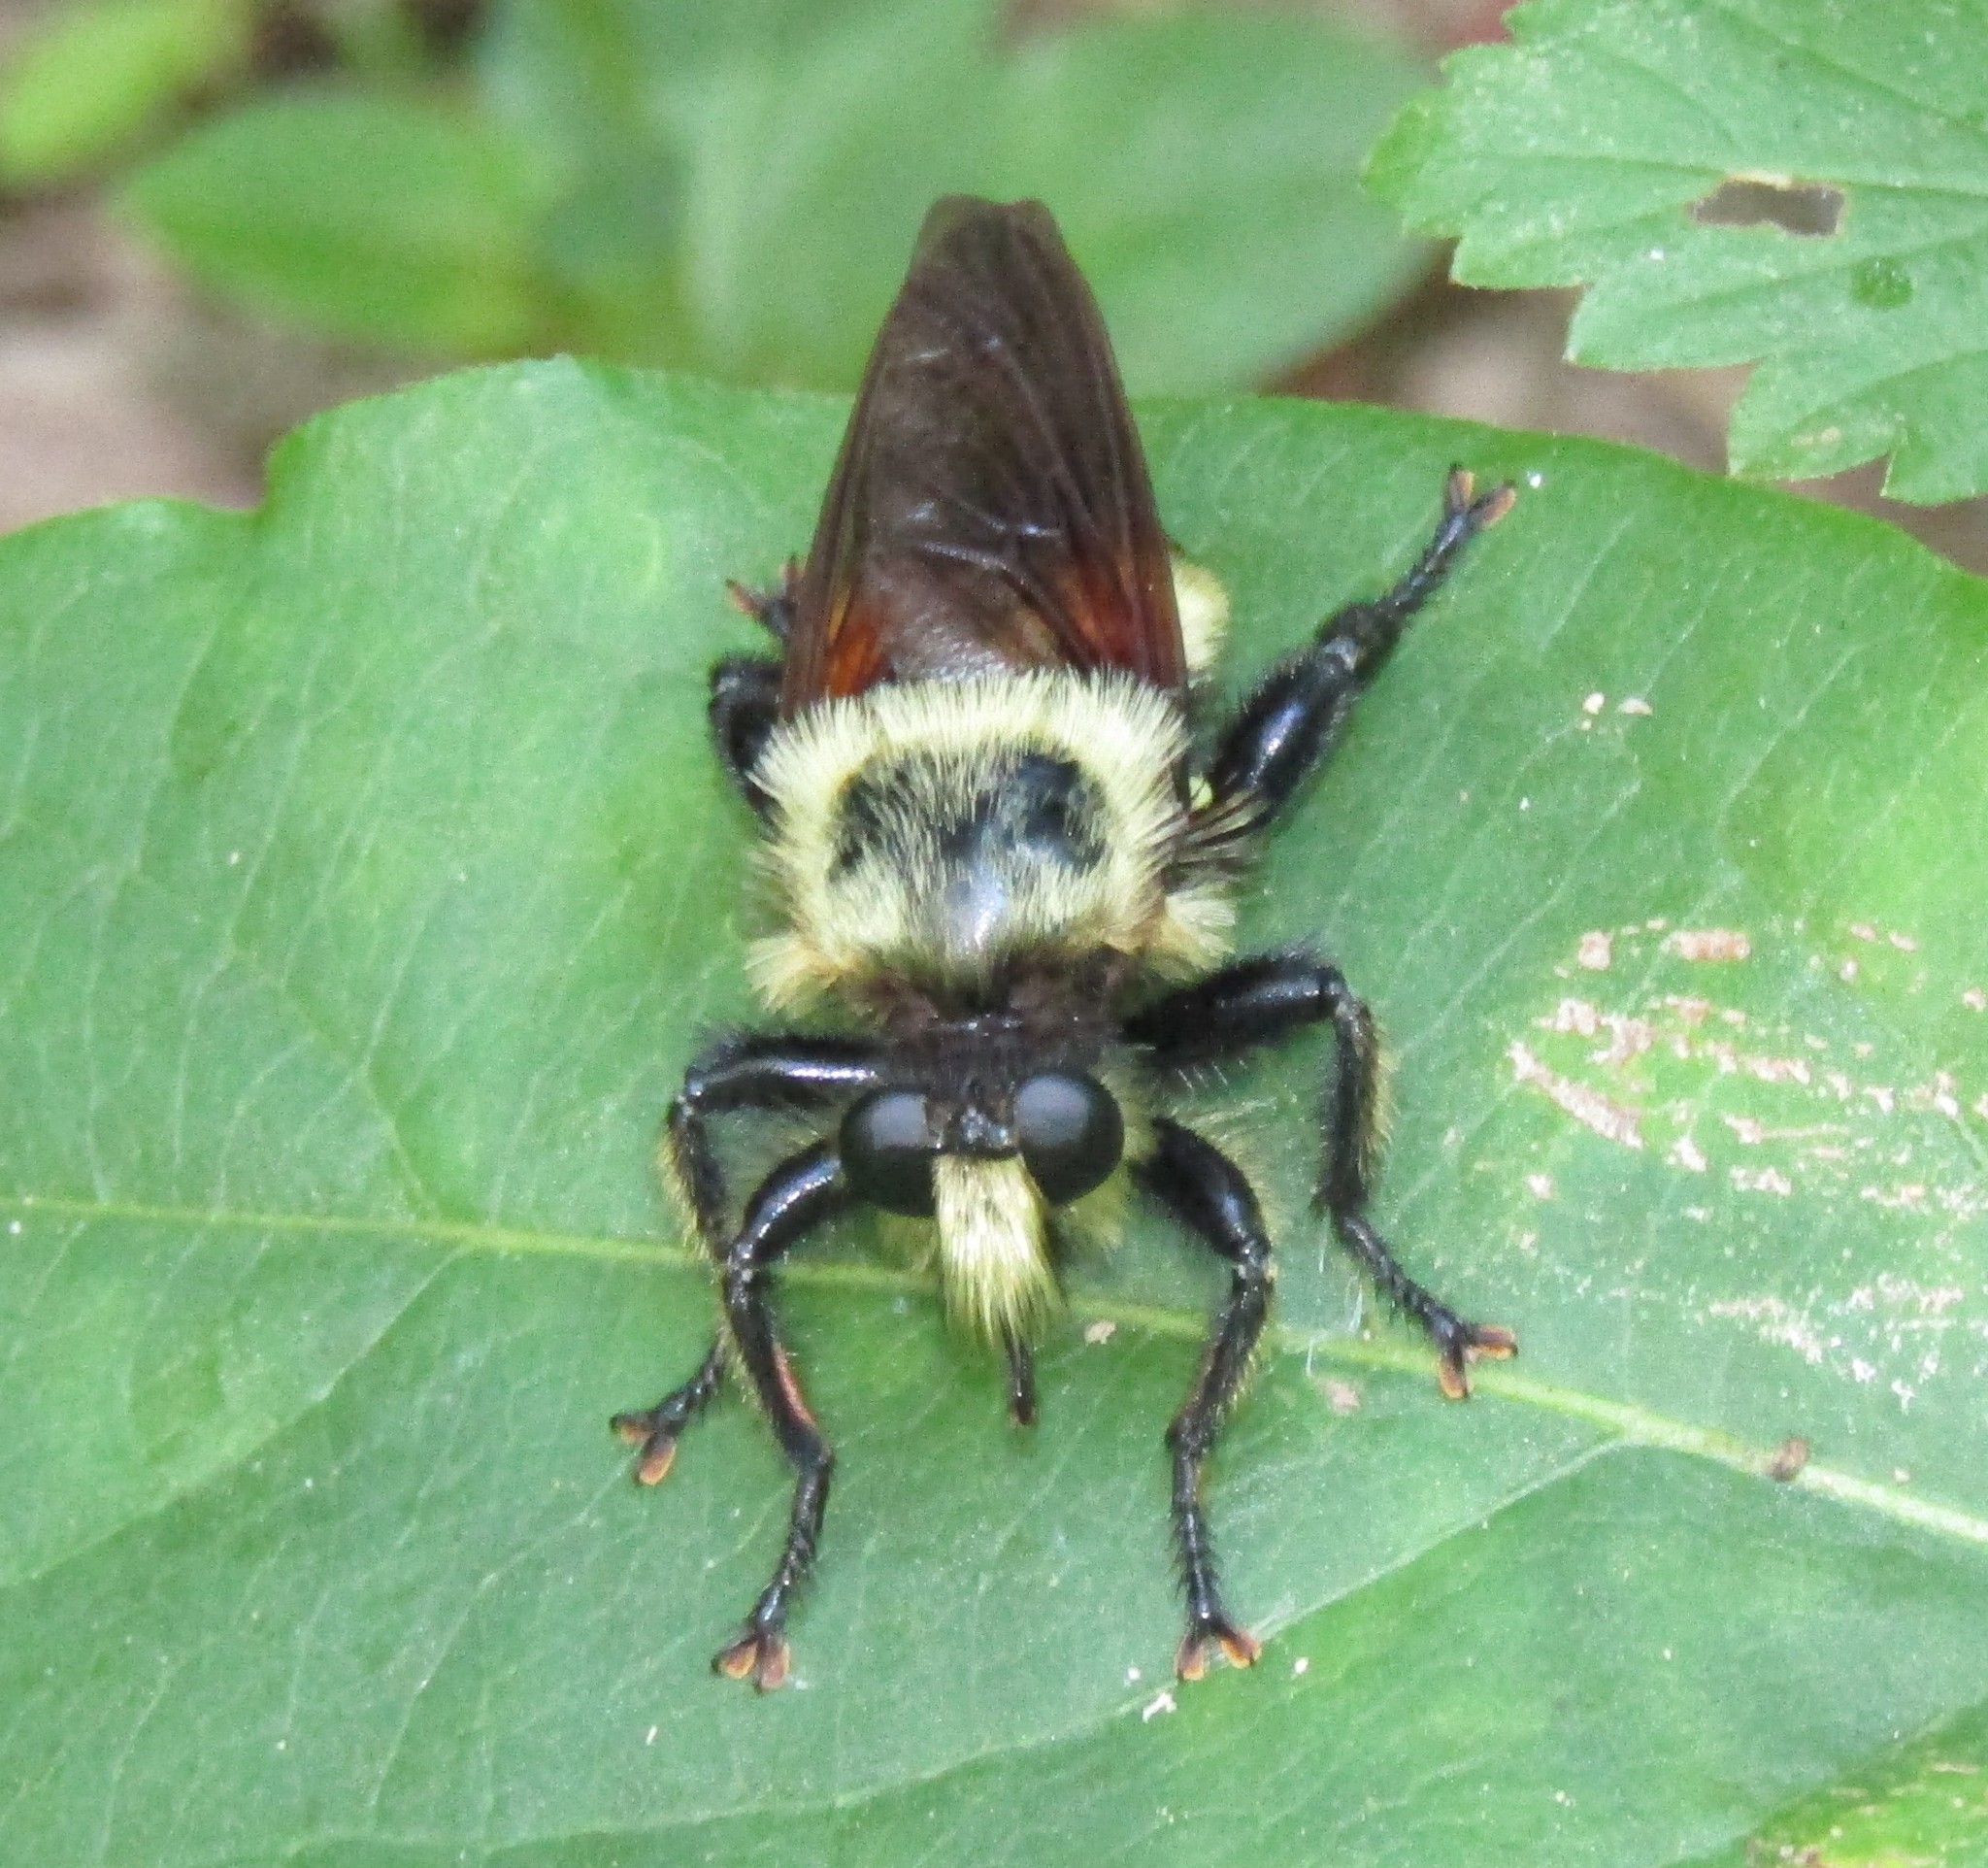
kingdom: Animalia
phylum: Arthropoda
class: Insecta
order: Diptera
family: Asilidae
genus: Laphria
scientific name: Laphria grossa
